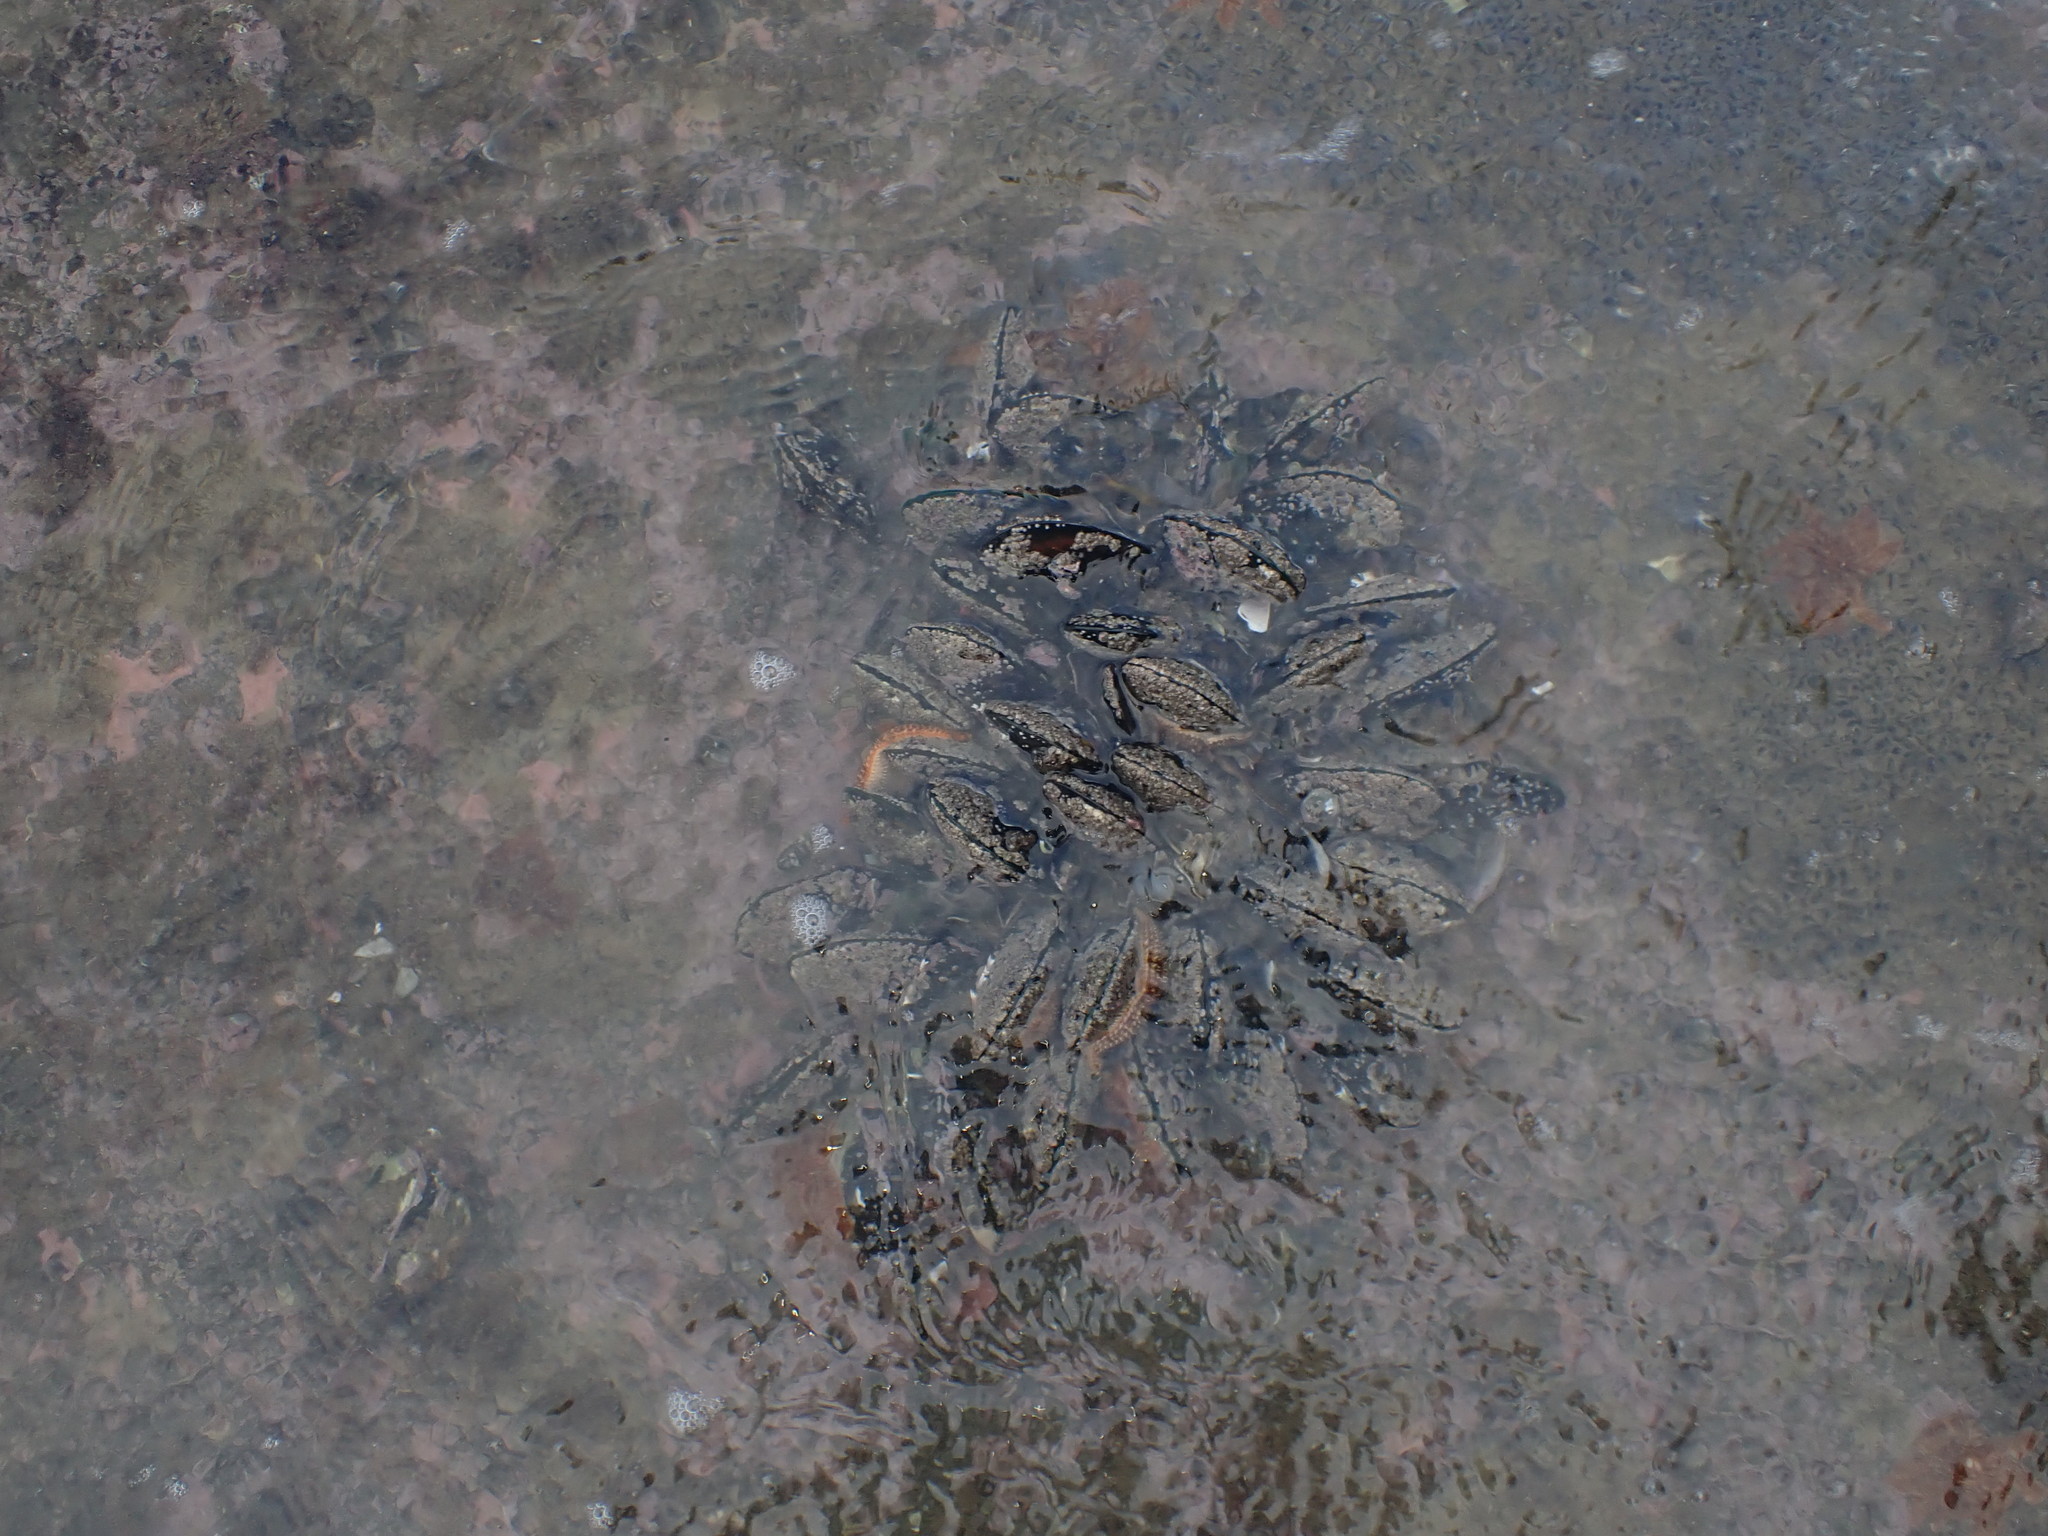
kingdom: Animalia
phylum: Mollusca
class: Bivalvia
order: Mytilida
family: Mytilidae
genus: Perna
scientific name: Perna canaliculus
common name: New zealand greenshelltm
